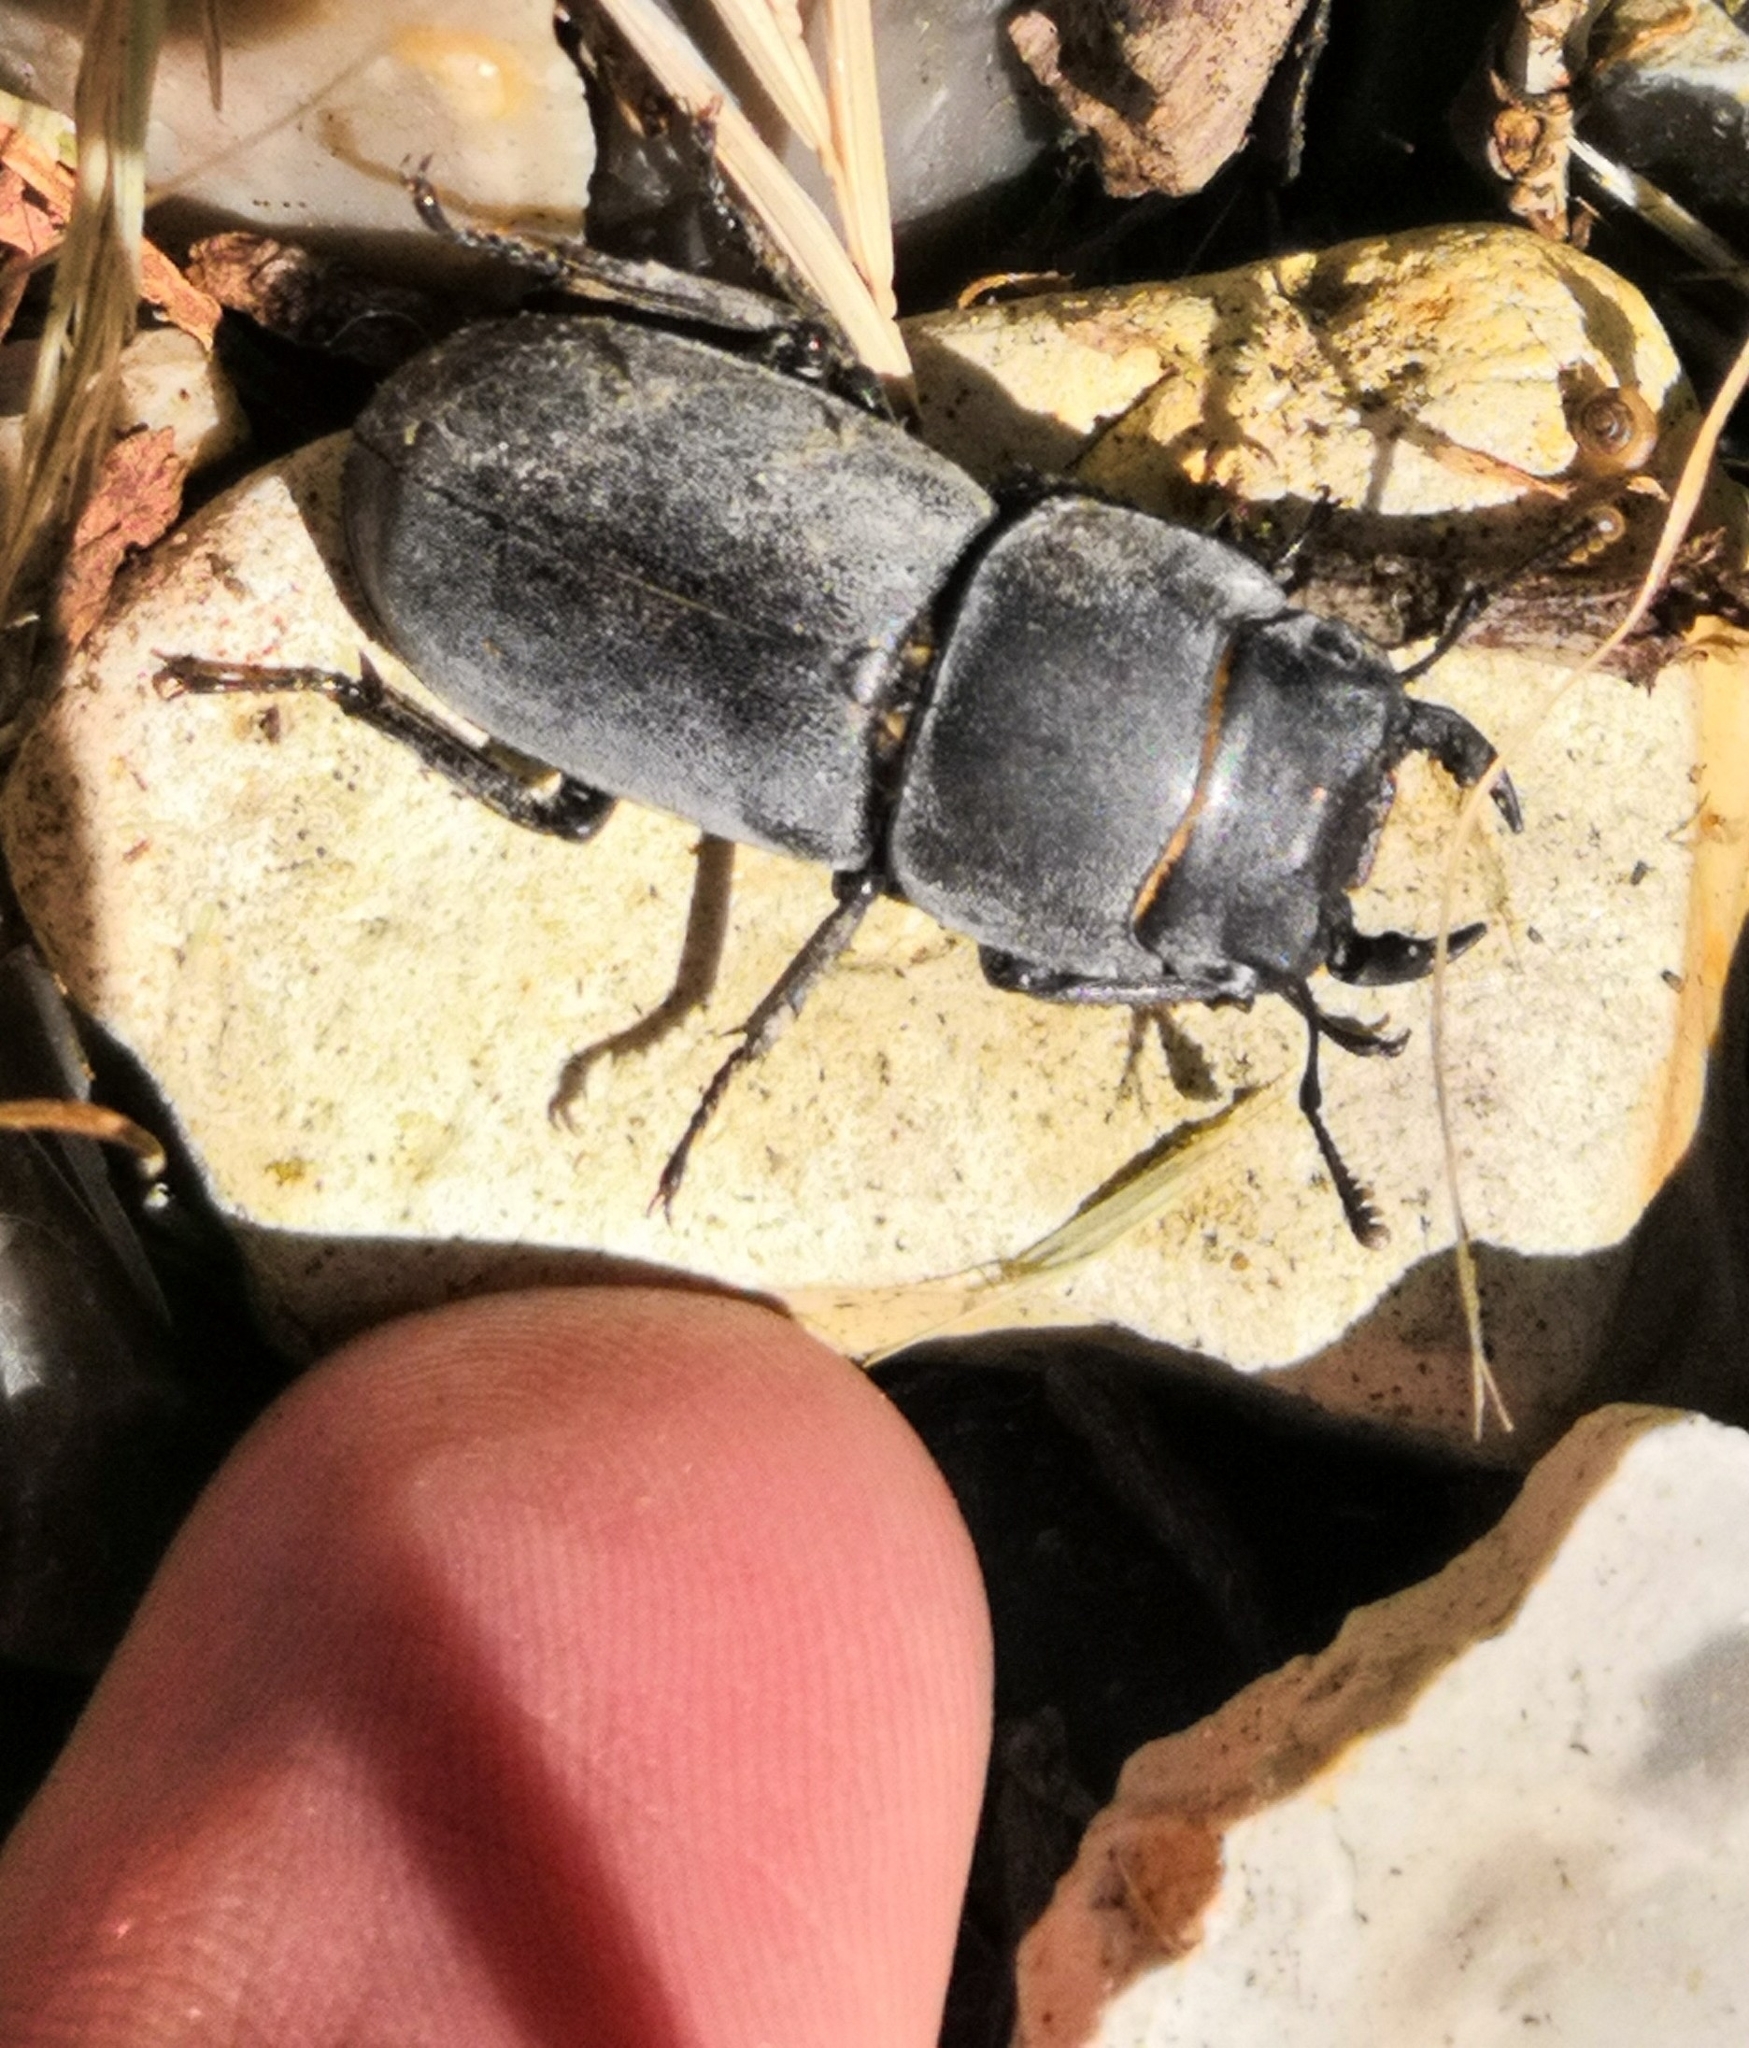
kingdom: Animalia
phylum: Arthropoda
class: Insecta
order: Coleoptera
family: Lucanidae
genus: Dorcus
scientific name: Dorcus parallelipipedus
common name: Lesser stag beetle
